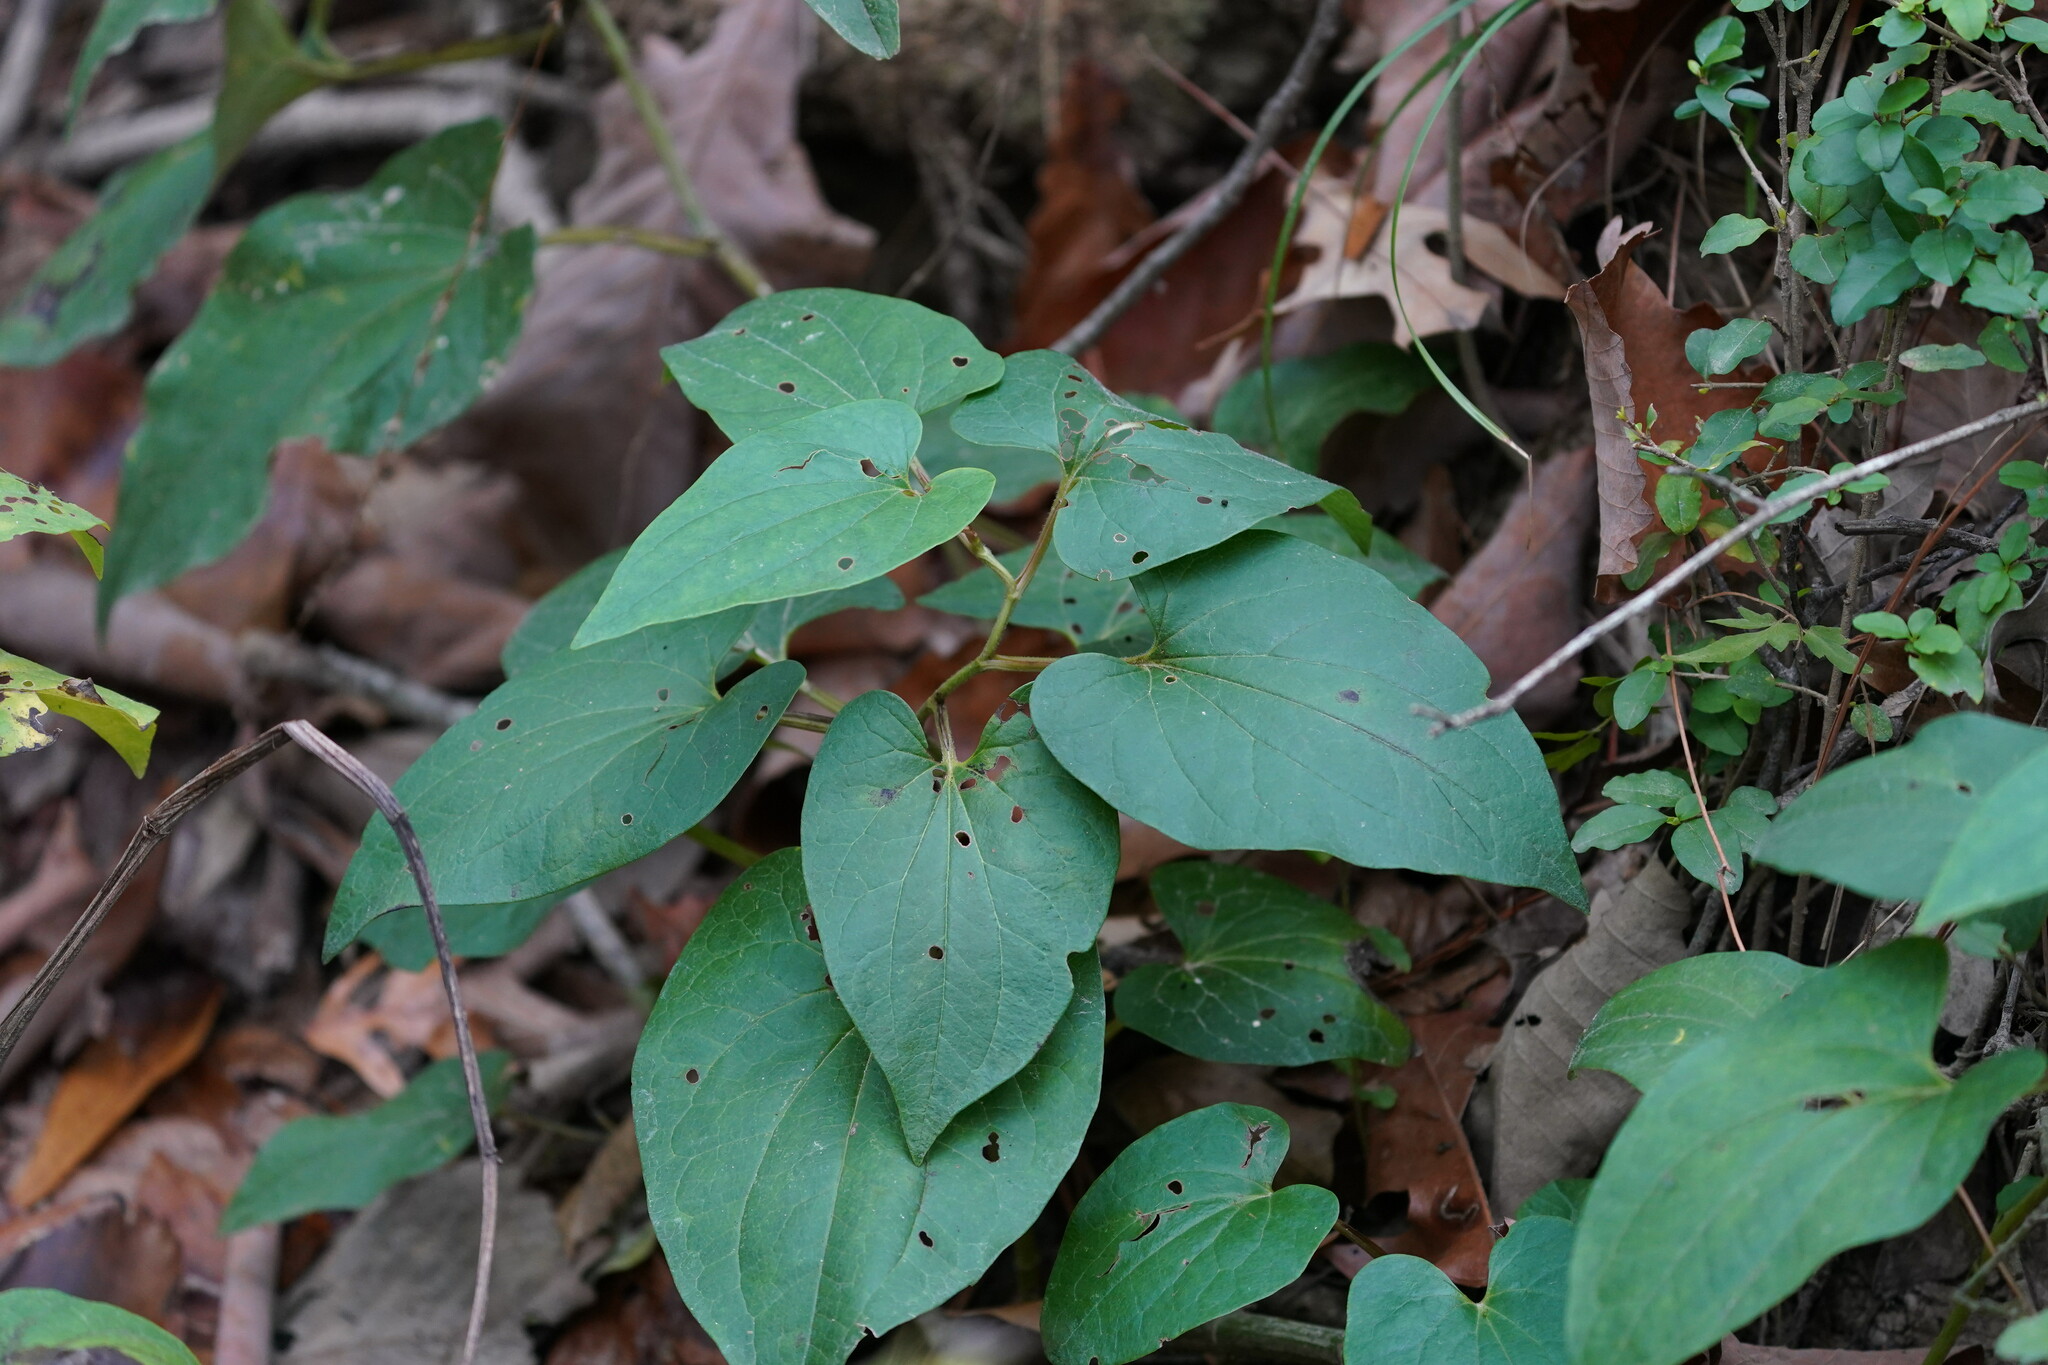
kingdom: Plantae
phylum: Tracheophyta
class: Magnoliopsida
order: Piperales
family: Saururaceae
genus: Saururus
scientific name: Saururus cernuus
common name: Lizard's-tail
